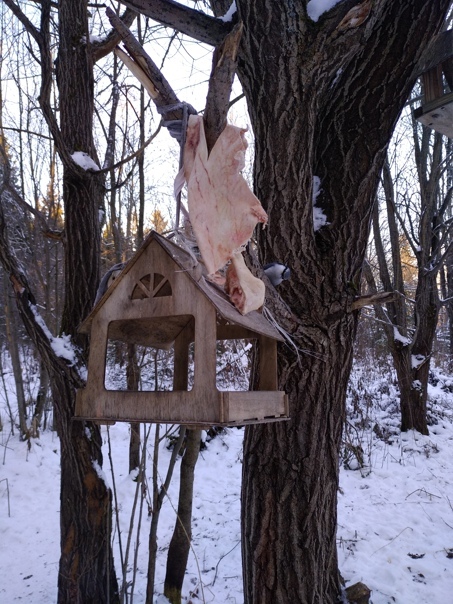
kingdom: Animalia
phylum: Chordata
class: Aves
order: Passeriformes
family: Sittidae
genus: Sitta
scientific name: Sitta europaea
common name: Eurasian nuthatch
